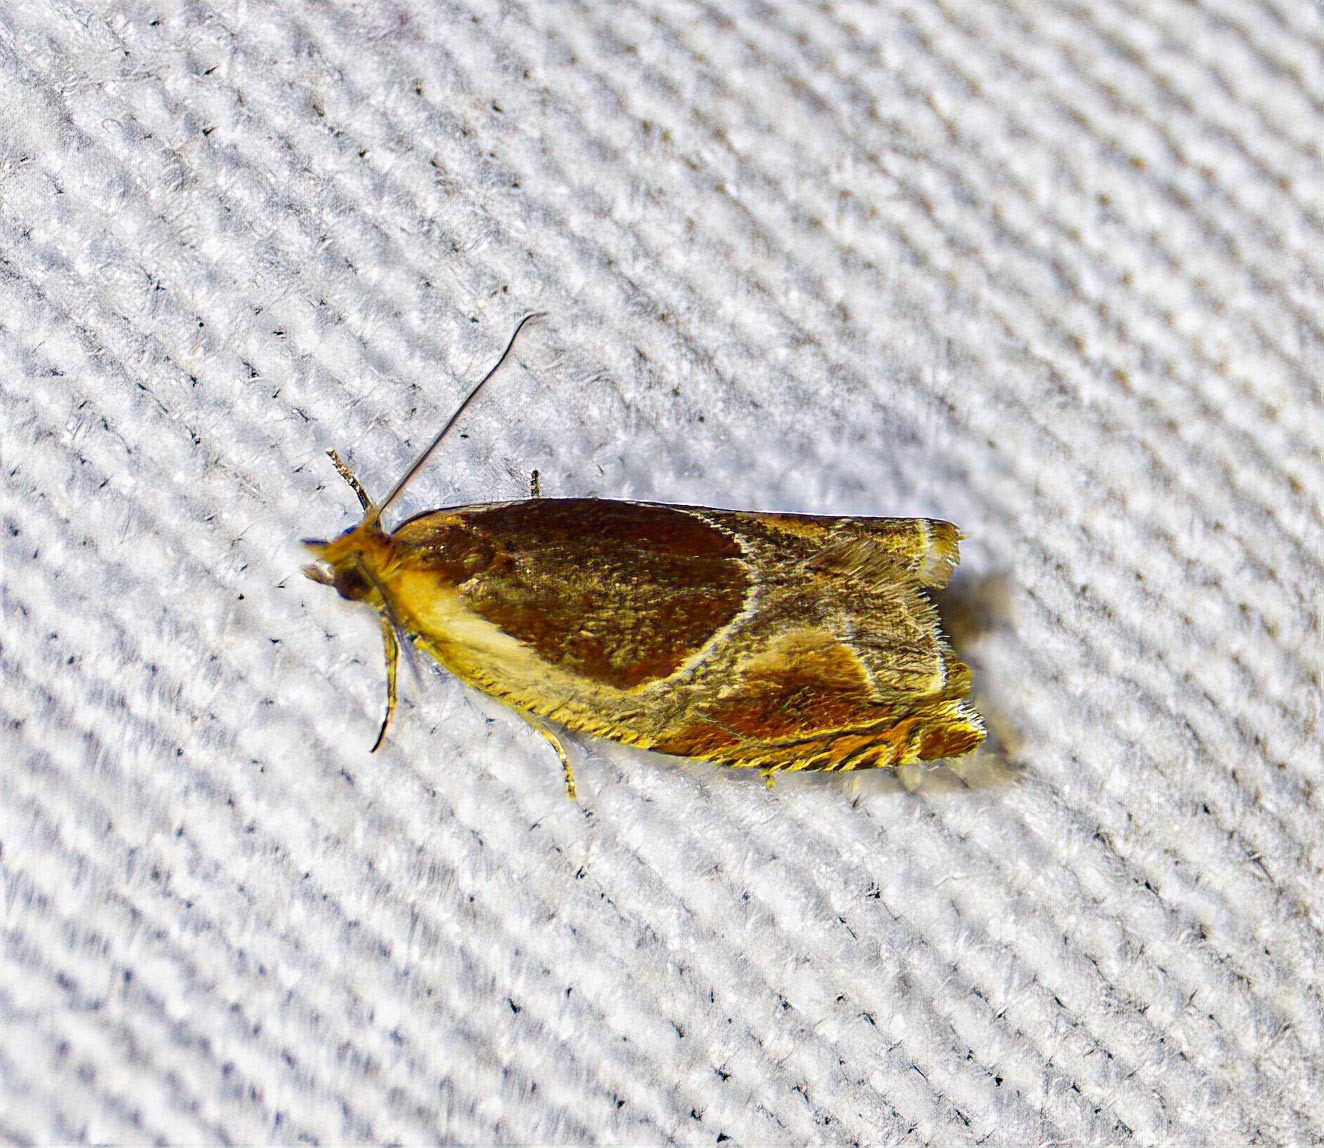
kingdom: Animalia
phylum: Arthropoda
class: Insecta
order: Lepidoptera
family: Tortricidae
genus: Ancylis
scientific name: Ancylis unculana
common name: Buckthorn roller
